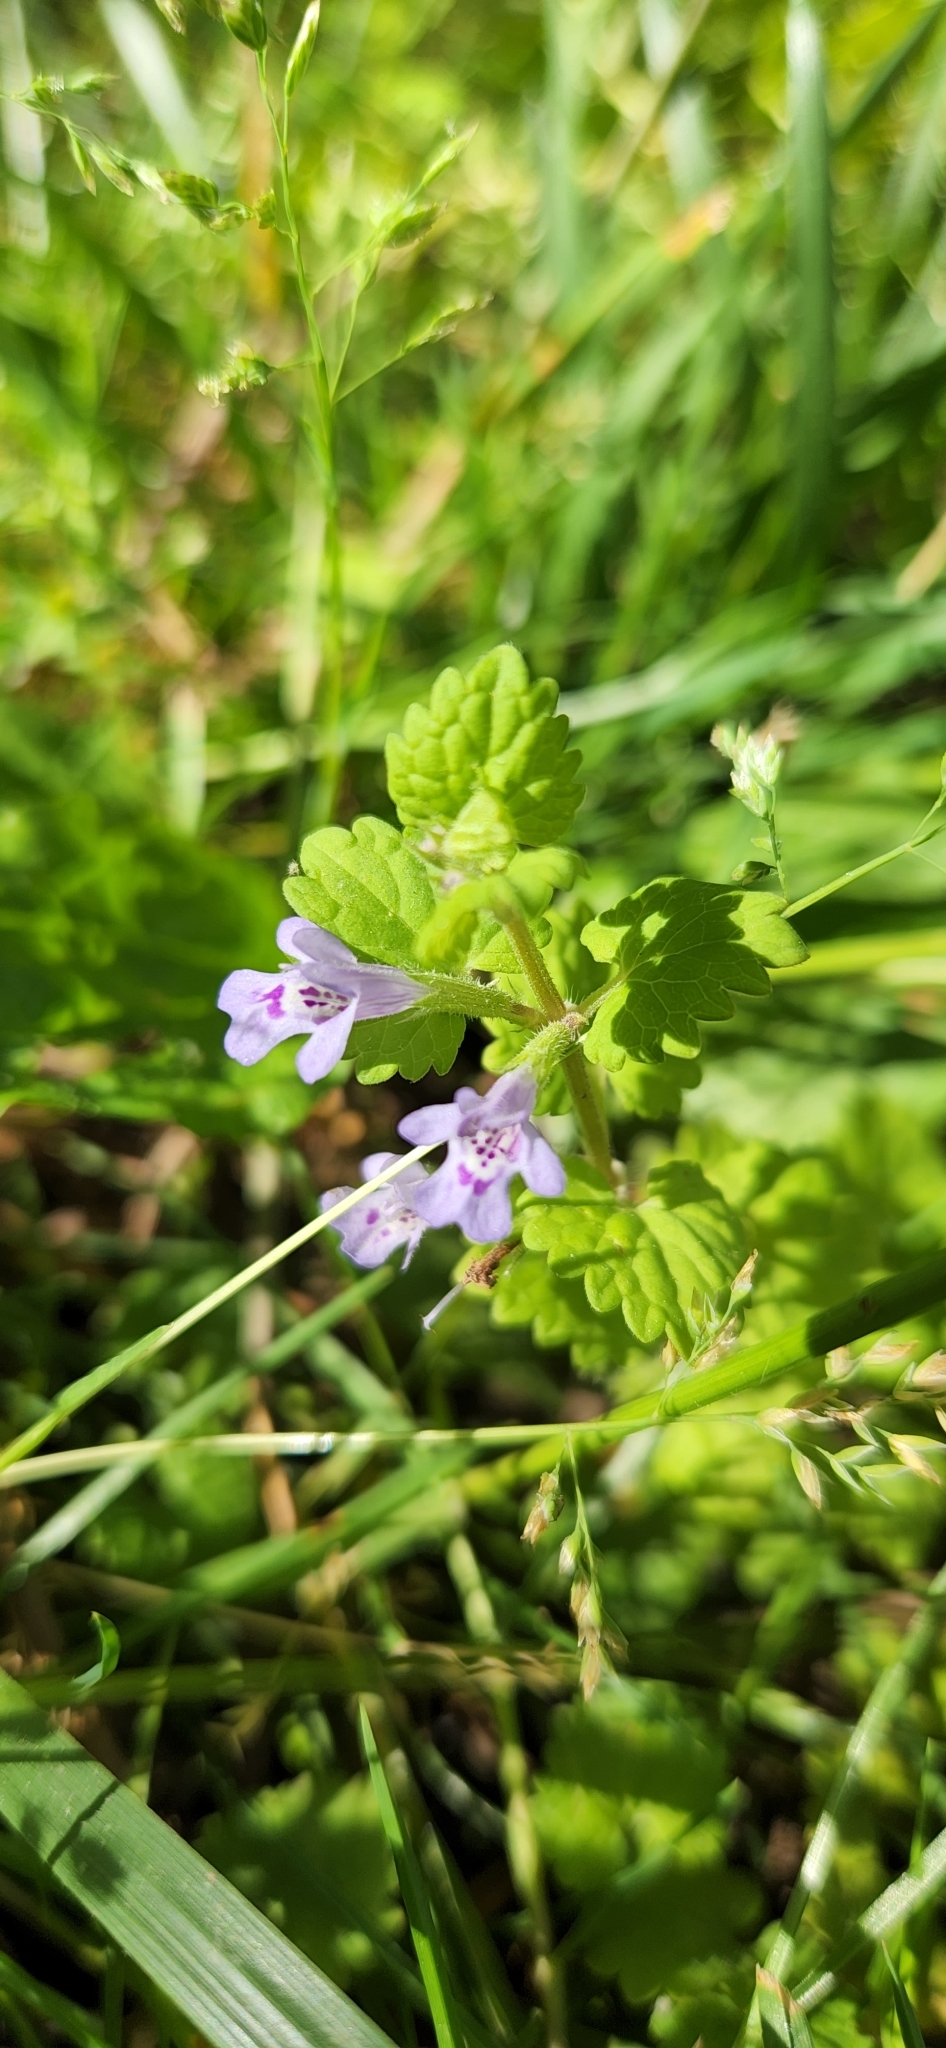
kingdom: Plantae
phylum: Tracheophyta
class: Magnoliopsida
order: Lamiales
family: Lamiaceae
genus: Glechoma
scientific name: Glechoma hederacea
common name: Ground ivy
